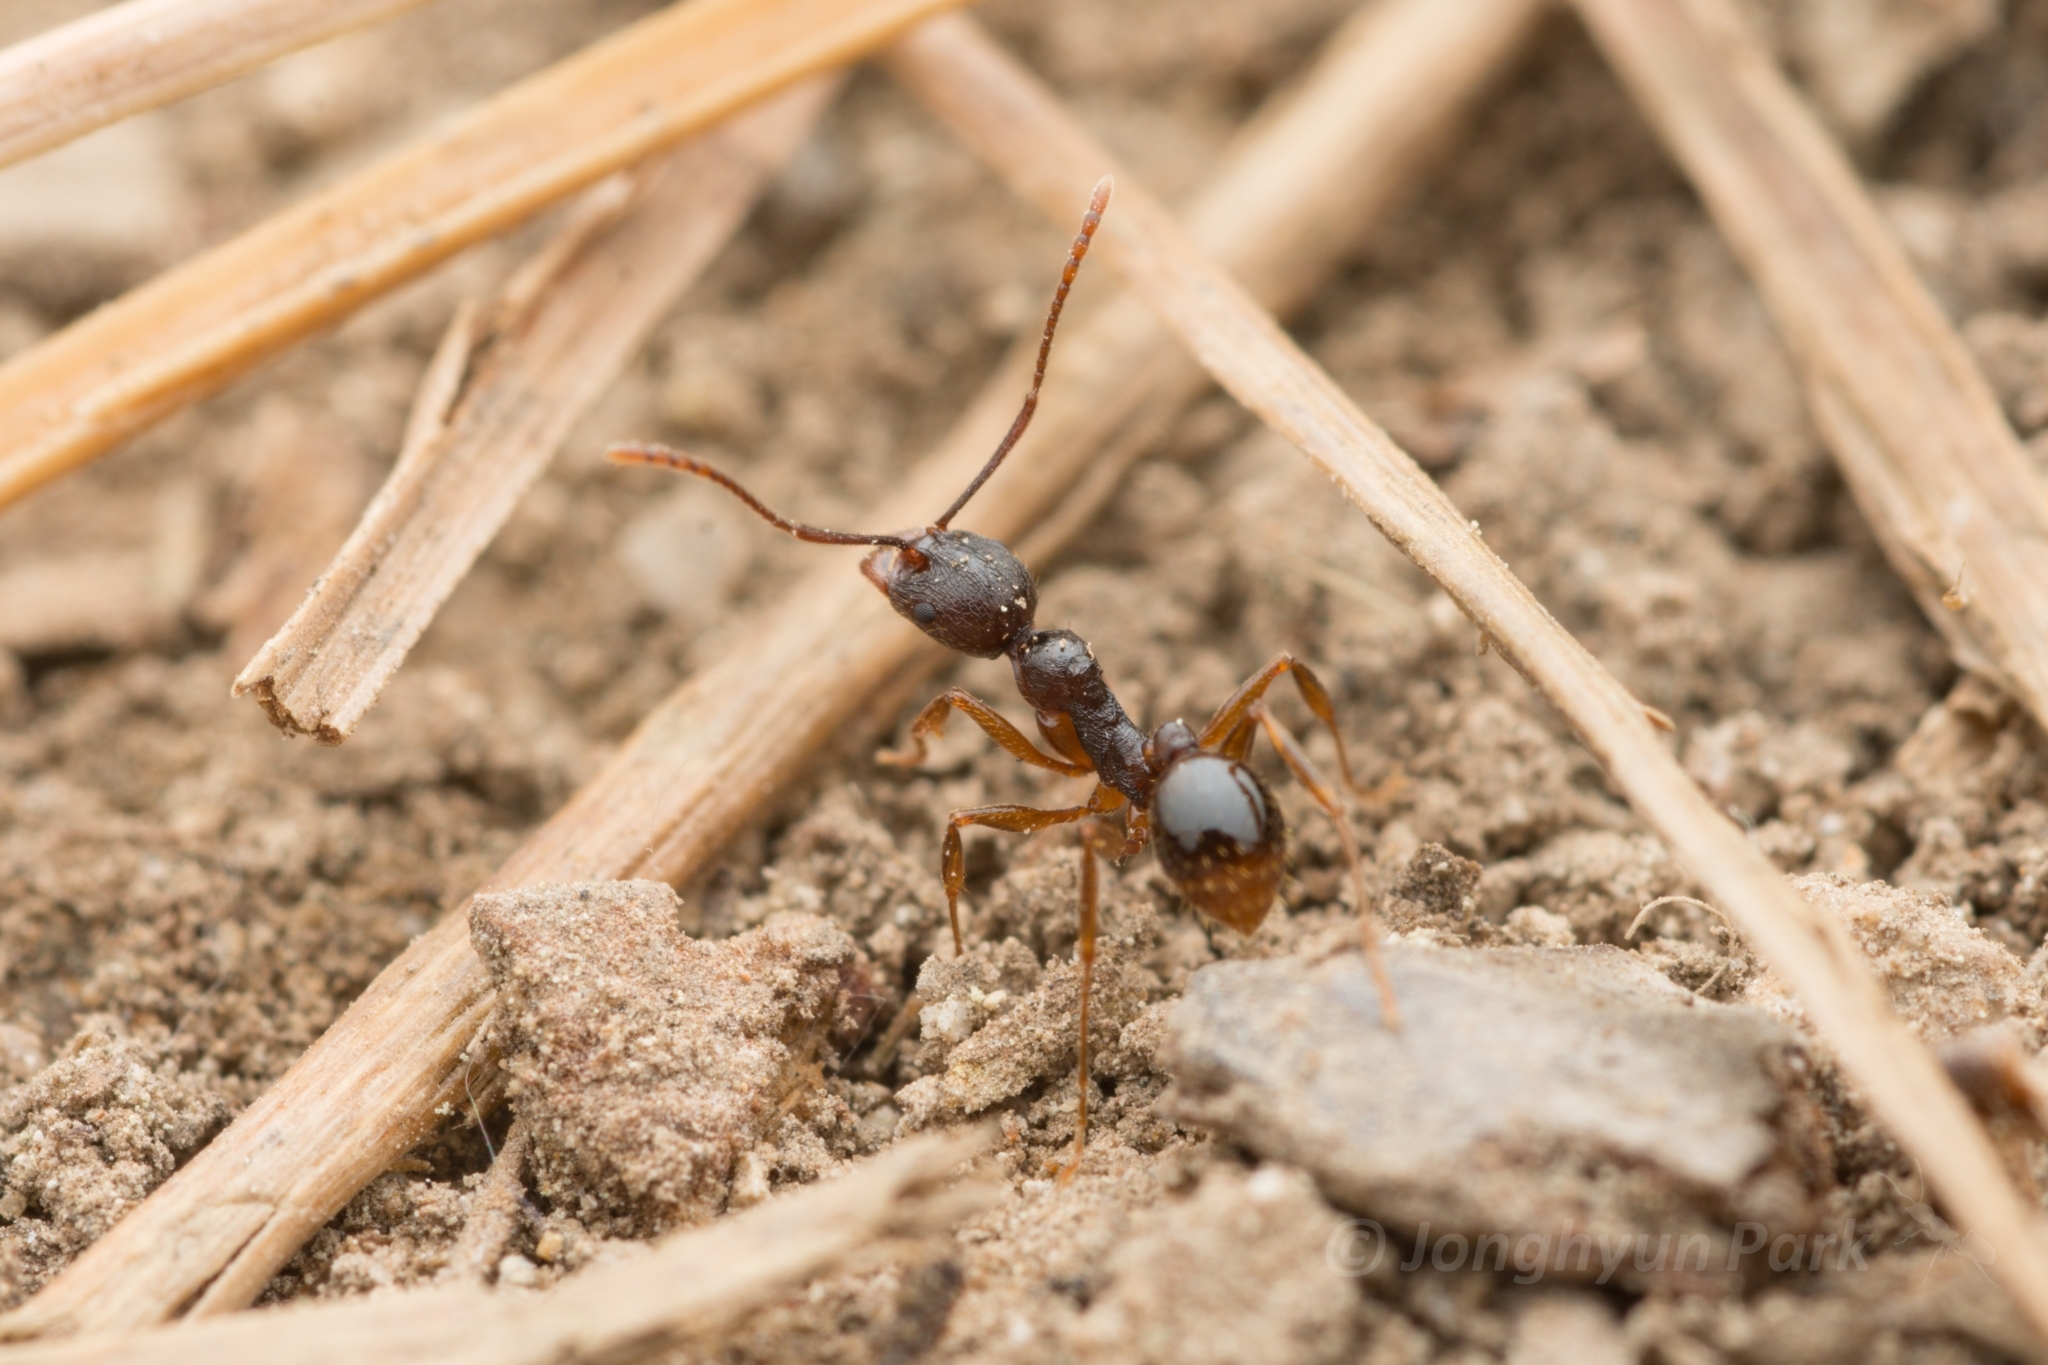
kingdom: Animalia
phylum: Arthropoda
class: Insecta
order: Hymenoptera
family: Formicidae
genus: Aphaenogaster
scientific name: Aphaenogaster japonica
